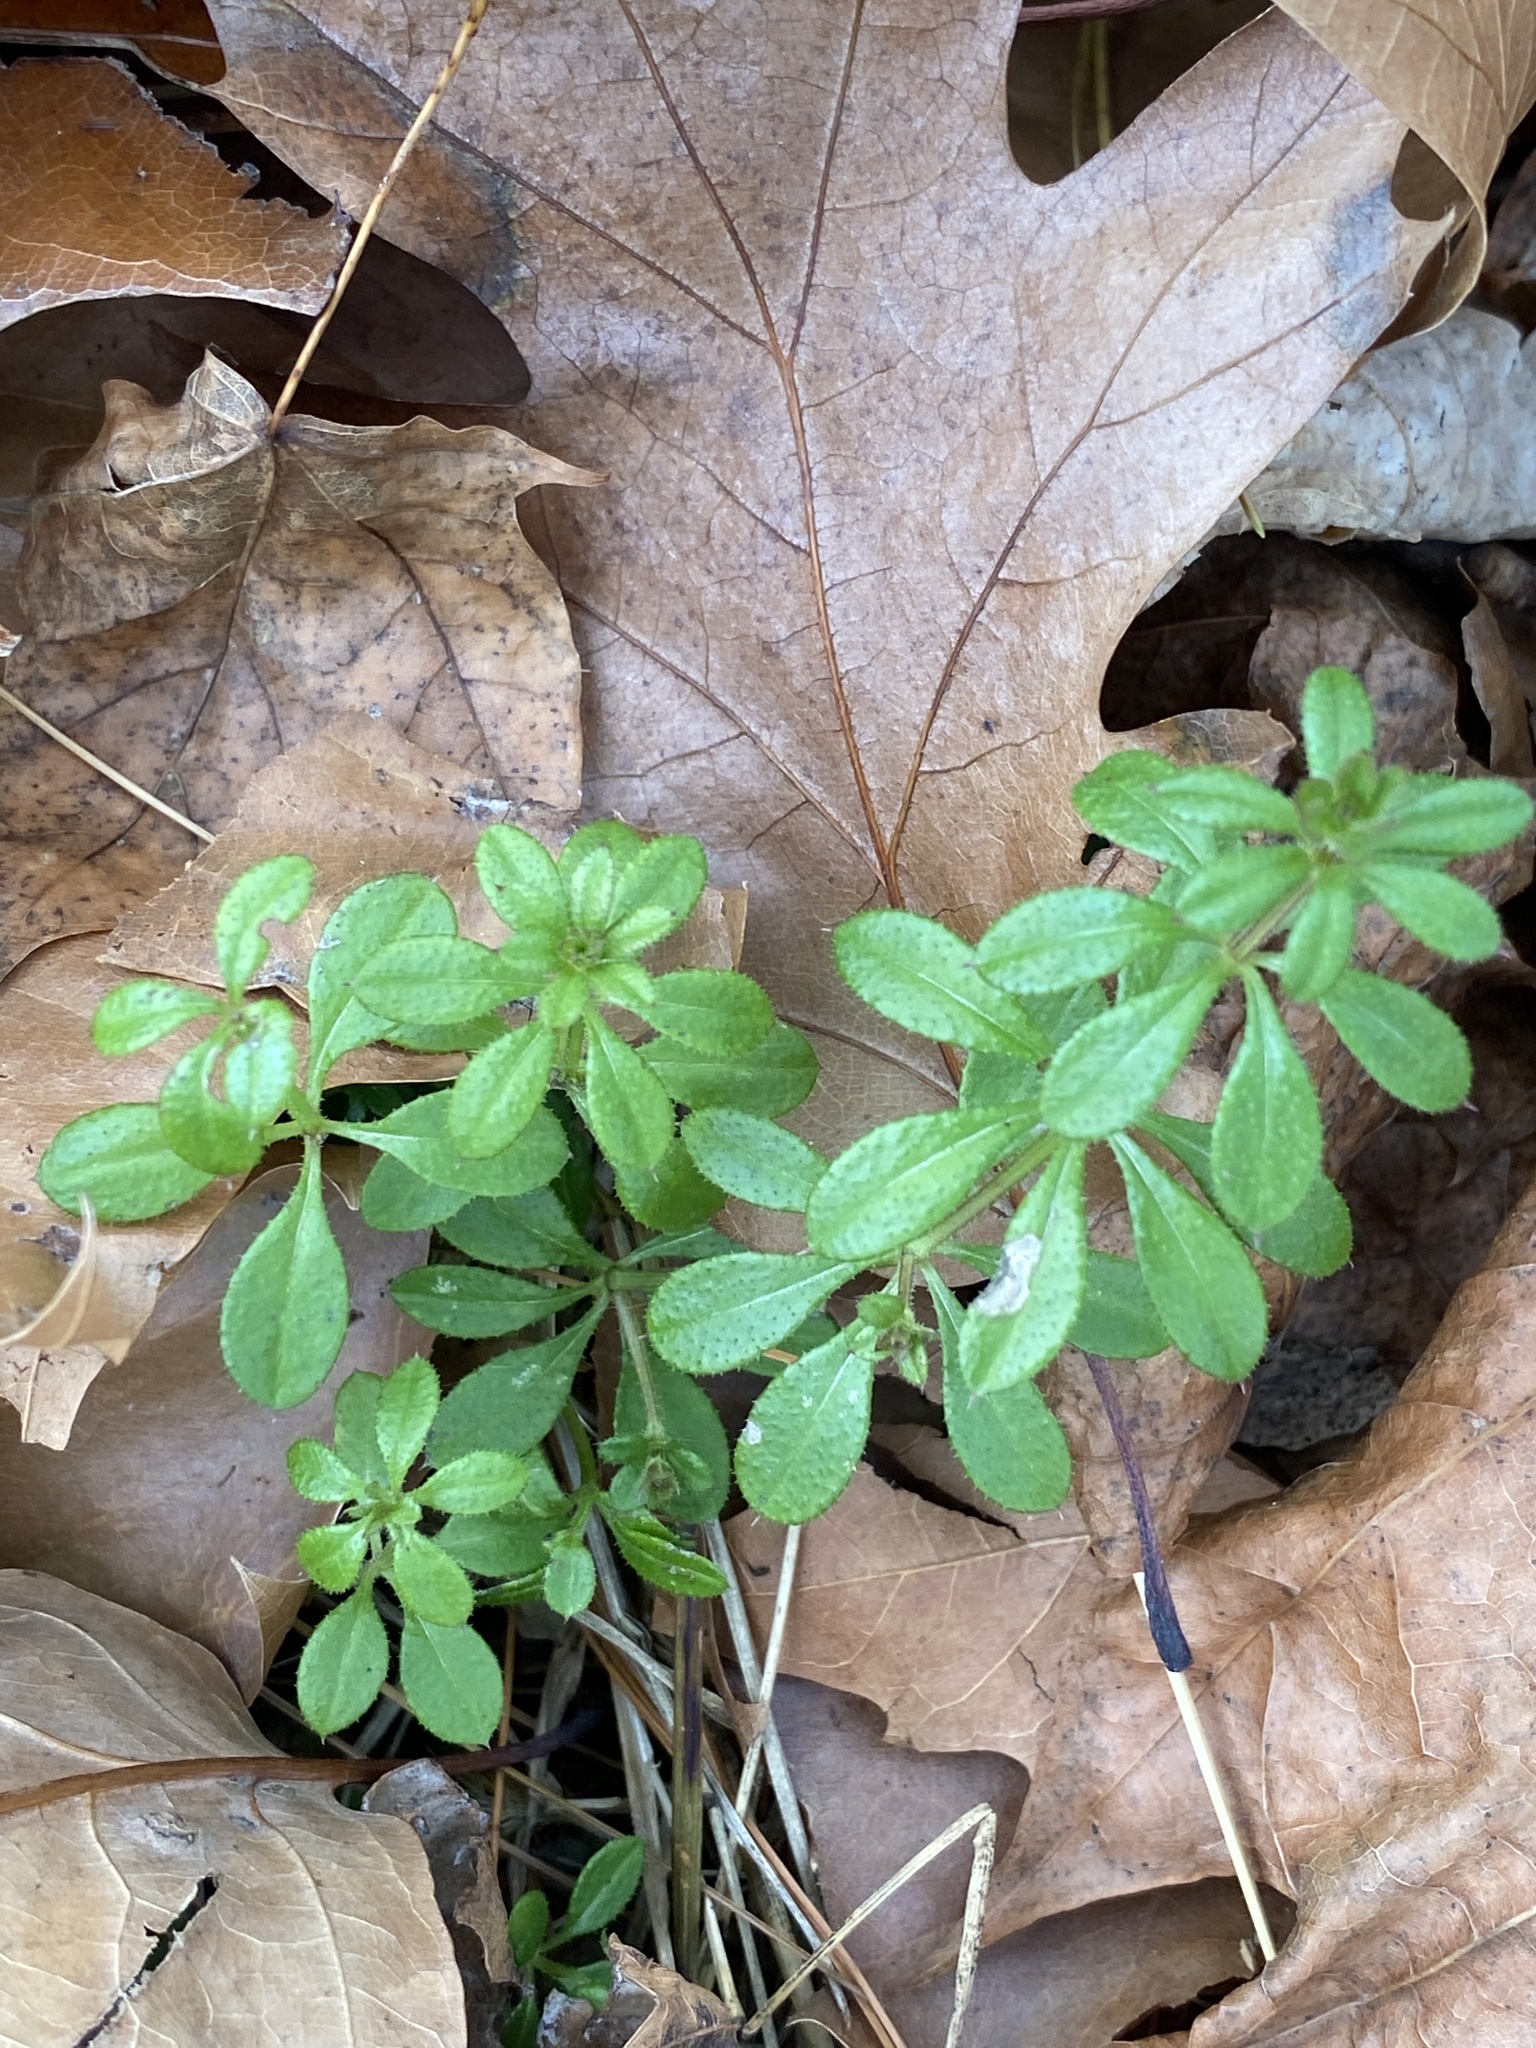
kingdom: Plantae
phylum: Tracheophyta
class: Magnoliopsida
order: Gentianales
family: Rubiaceae
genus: Galium
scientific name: Galium aparine
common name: Cleavers
